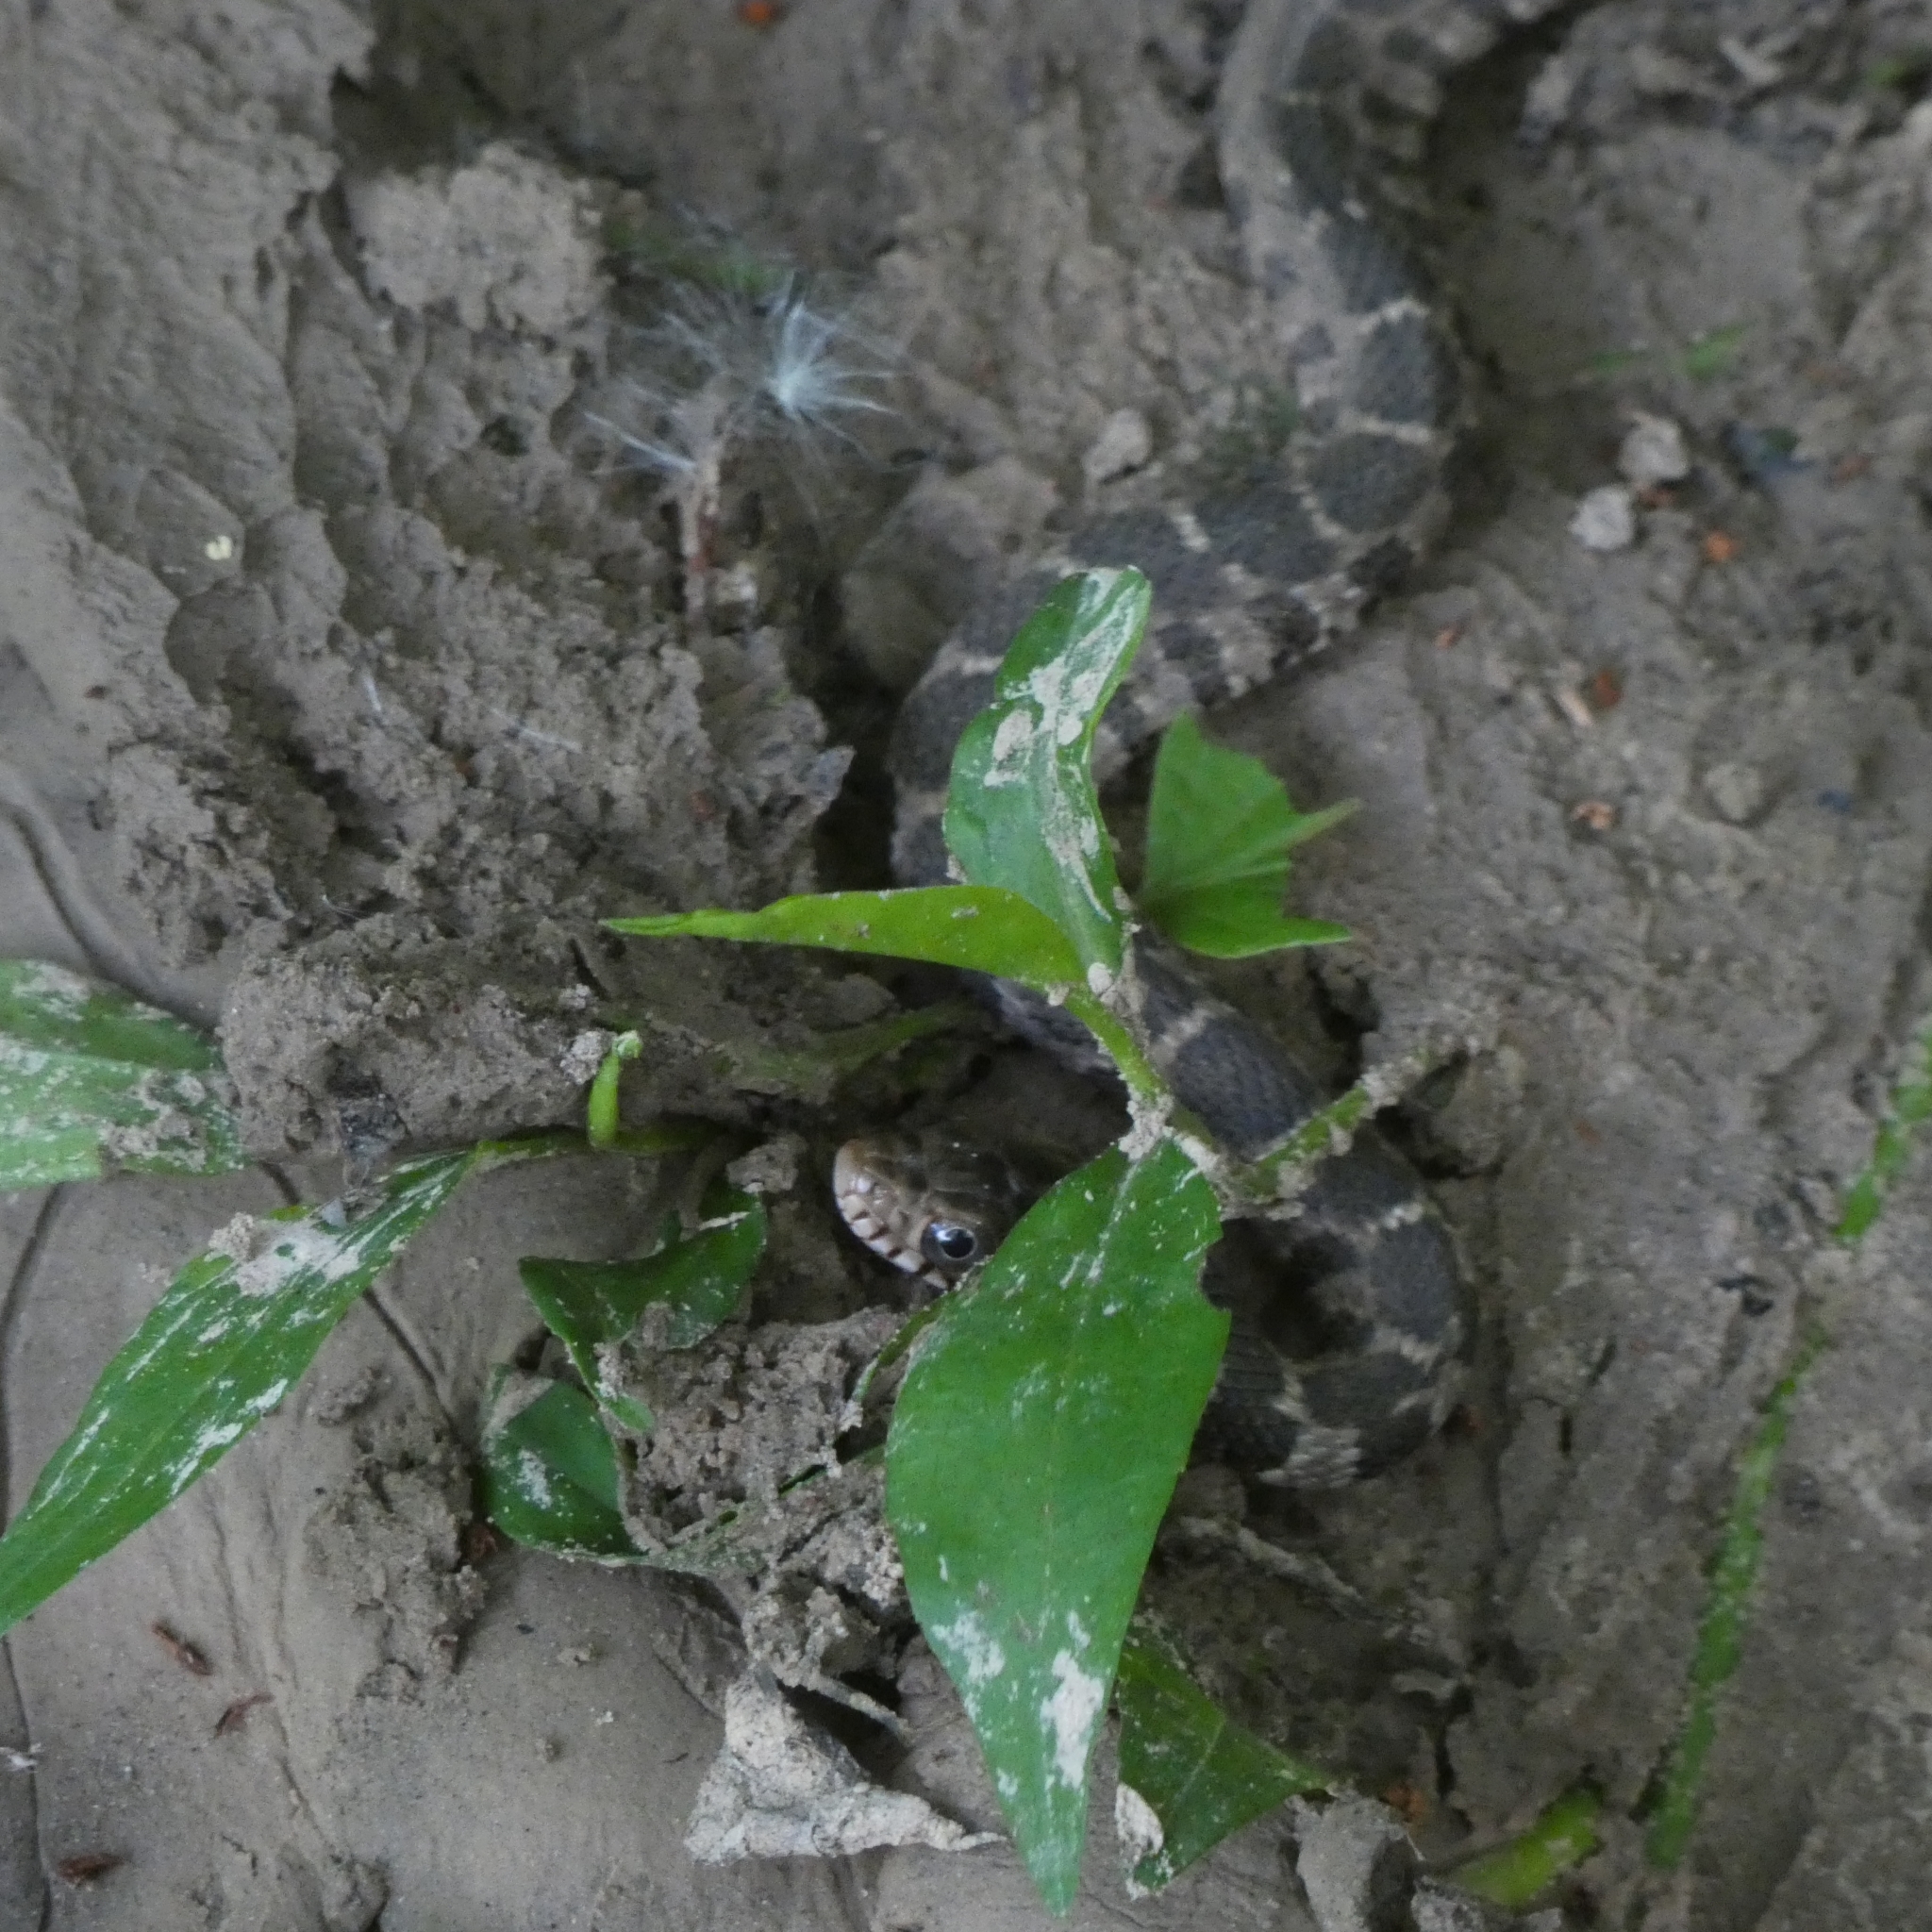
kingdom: Animalia
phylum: Chordata
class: Squamata
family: Colubridae
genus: Nerodia
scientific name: Nerodia erythrogaster
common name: Plainbelly water snake
